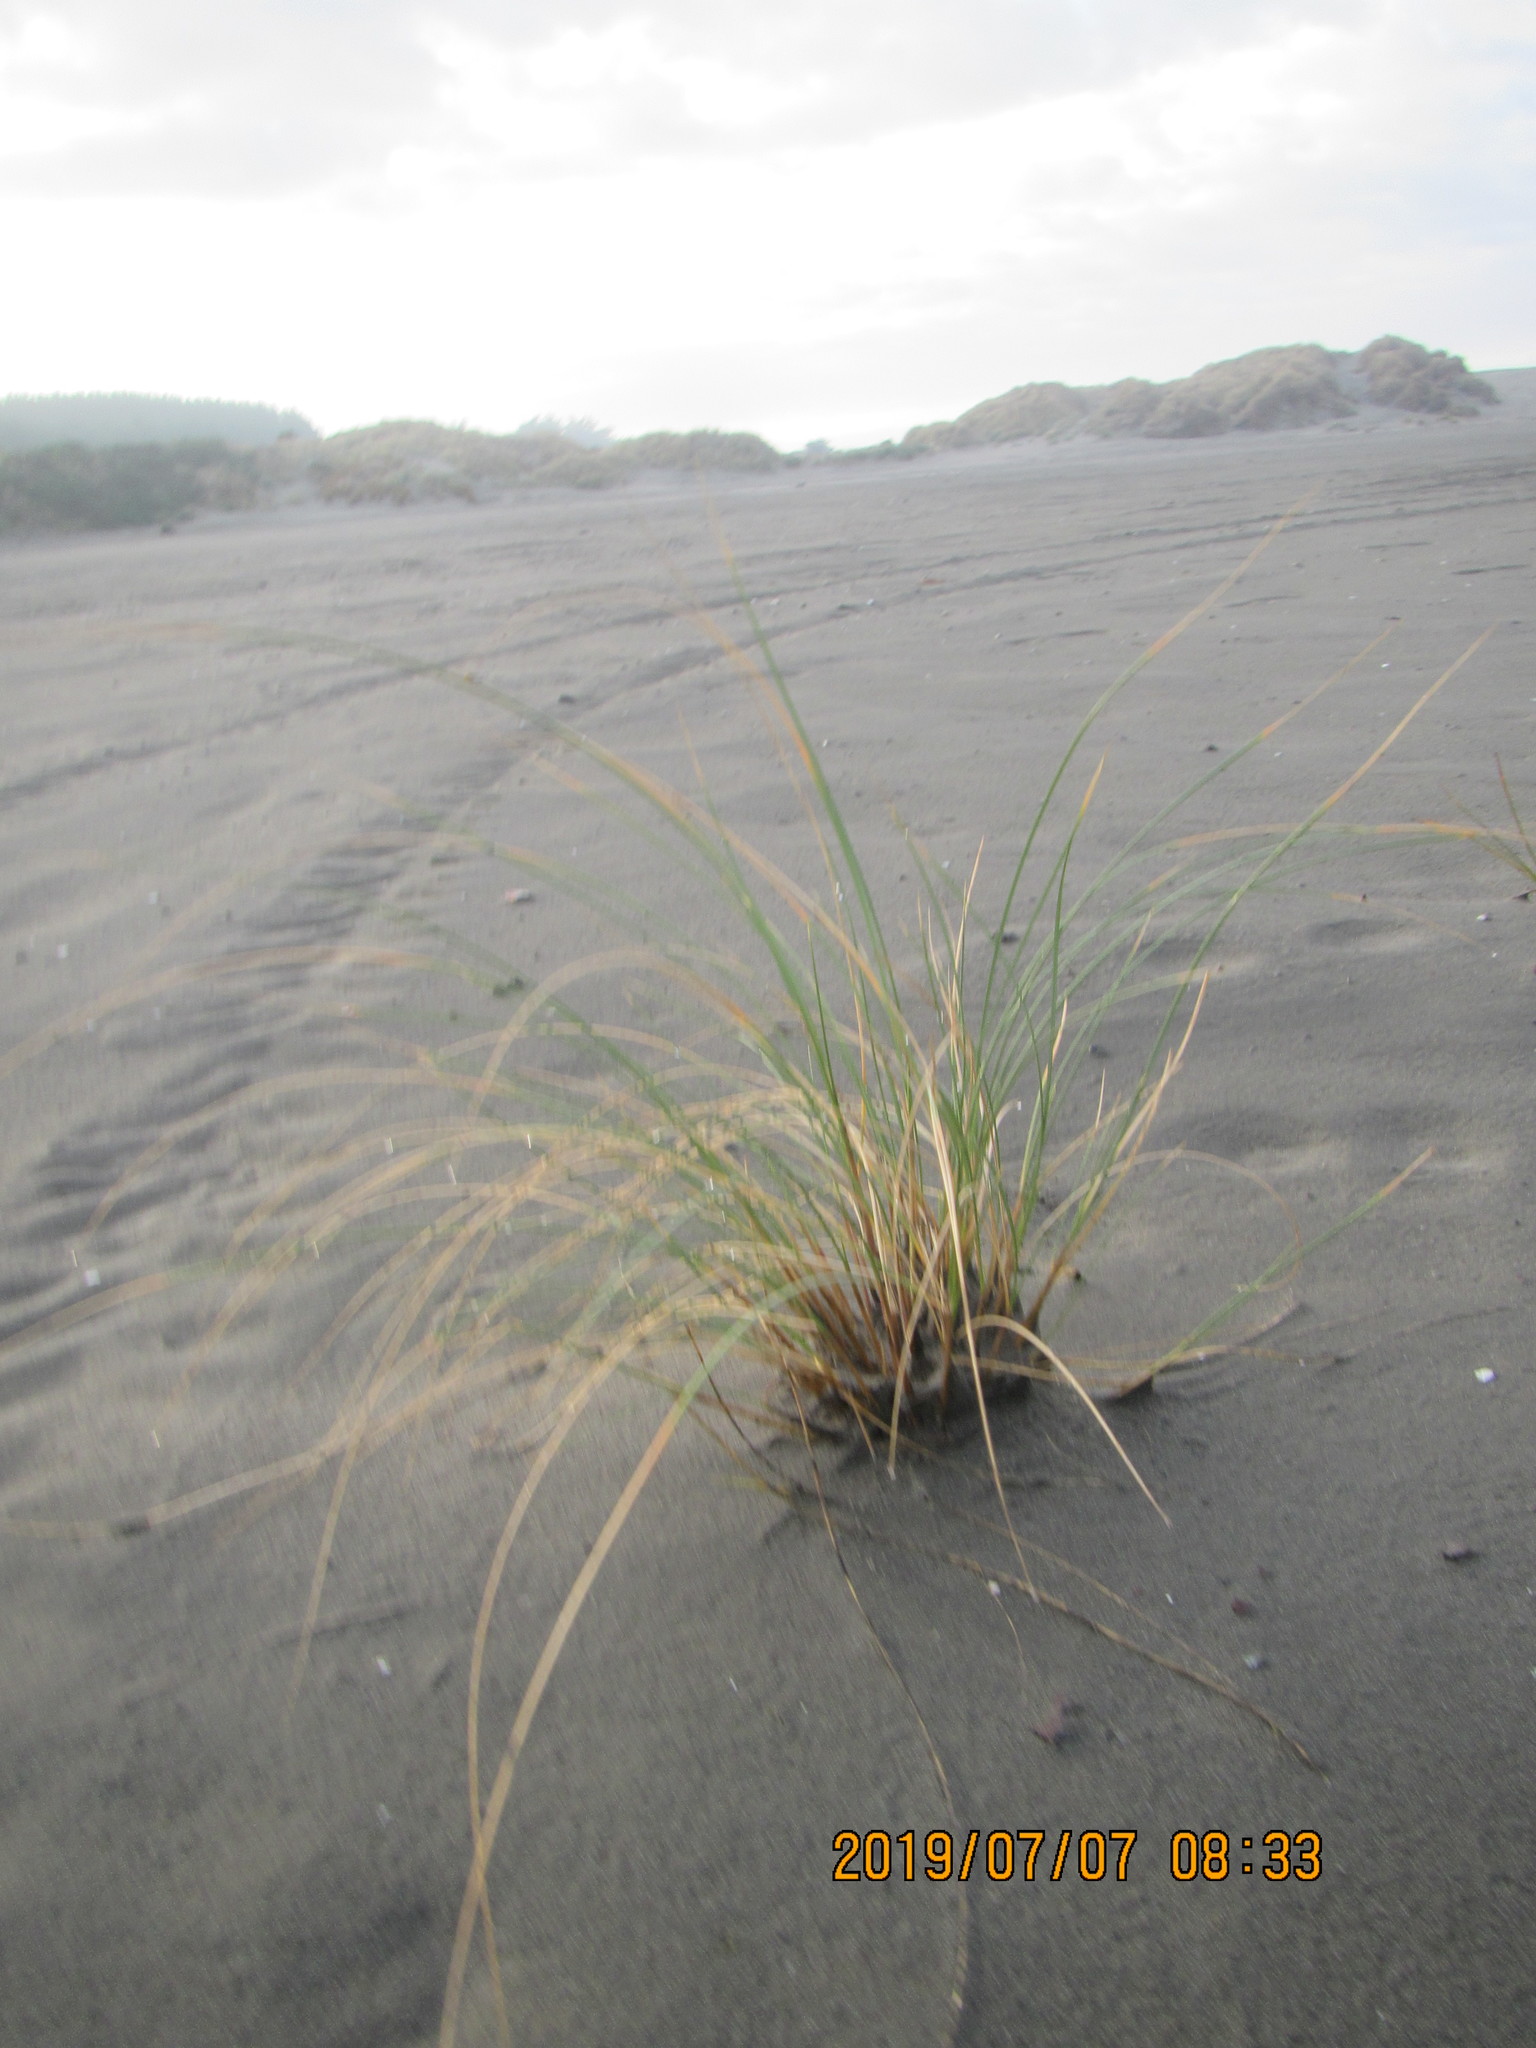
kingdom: Plantae
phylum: Tracheophyta
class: Liliopsida
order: Poales
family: Poaceae
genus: Calamagrostis
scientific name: Calamagrostis arenaria
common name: European beachgrass
